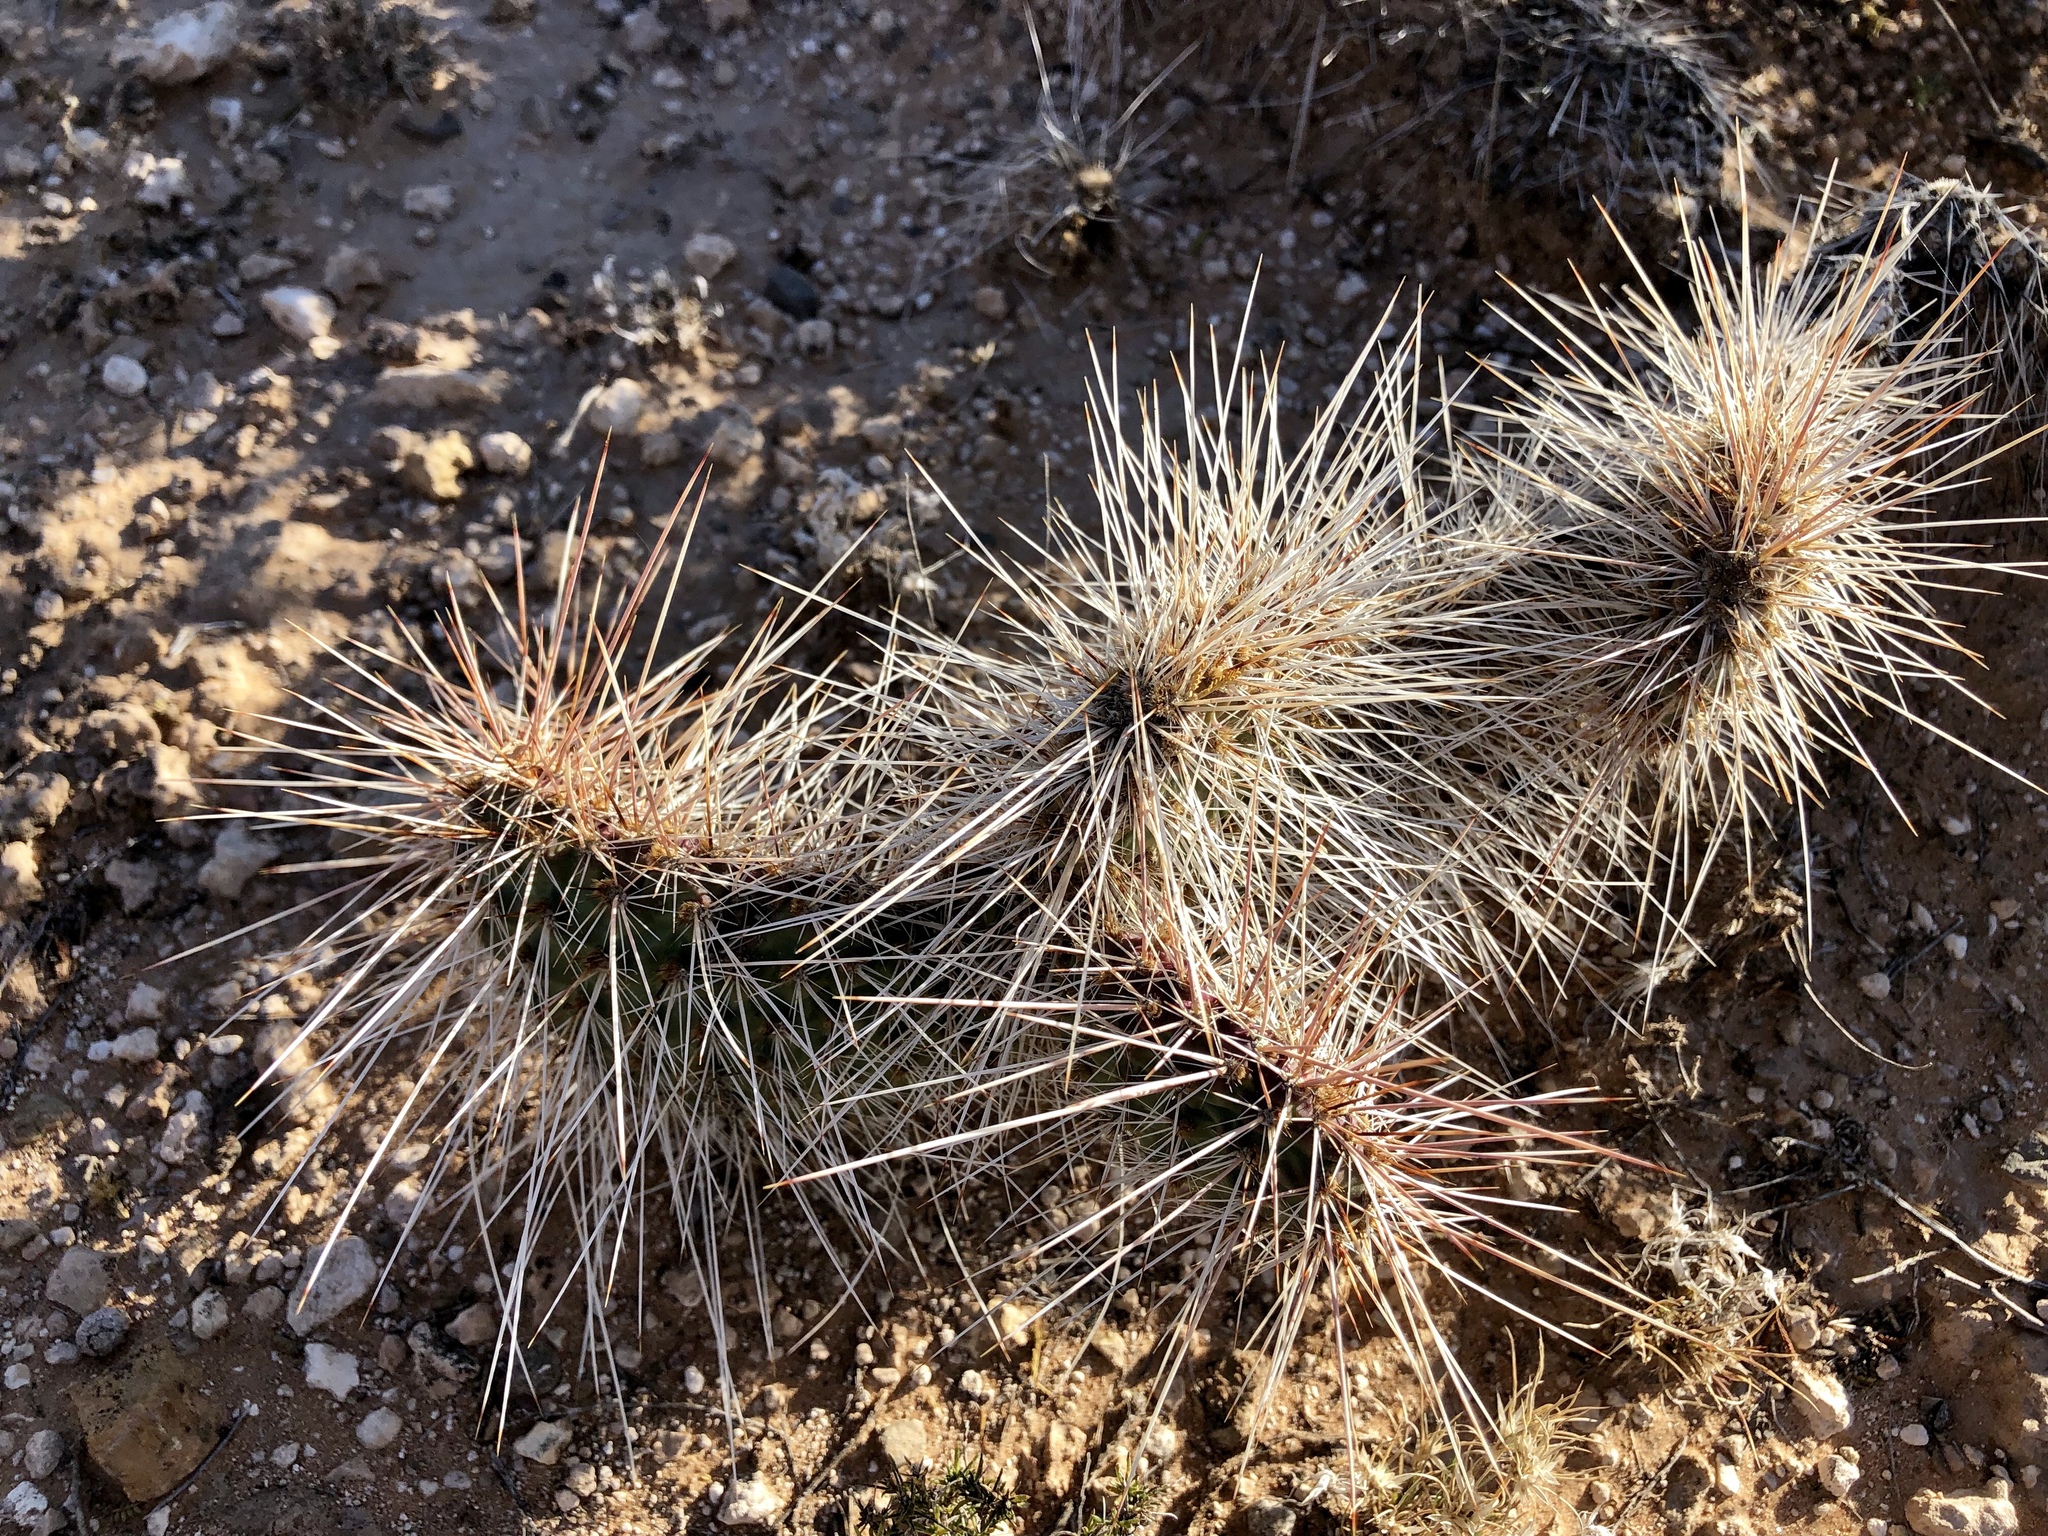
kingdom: Plantae
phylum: Tracheophyta
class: Magnoliopsida
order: Caryophyllales
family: Cactaceae
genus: Opuntia
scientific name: Opuntia polyacantha
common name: Plains prickly-pear
